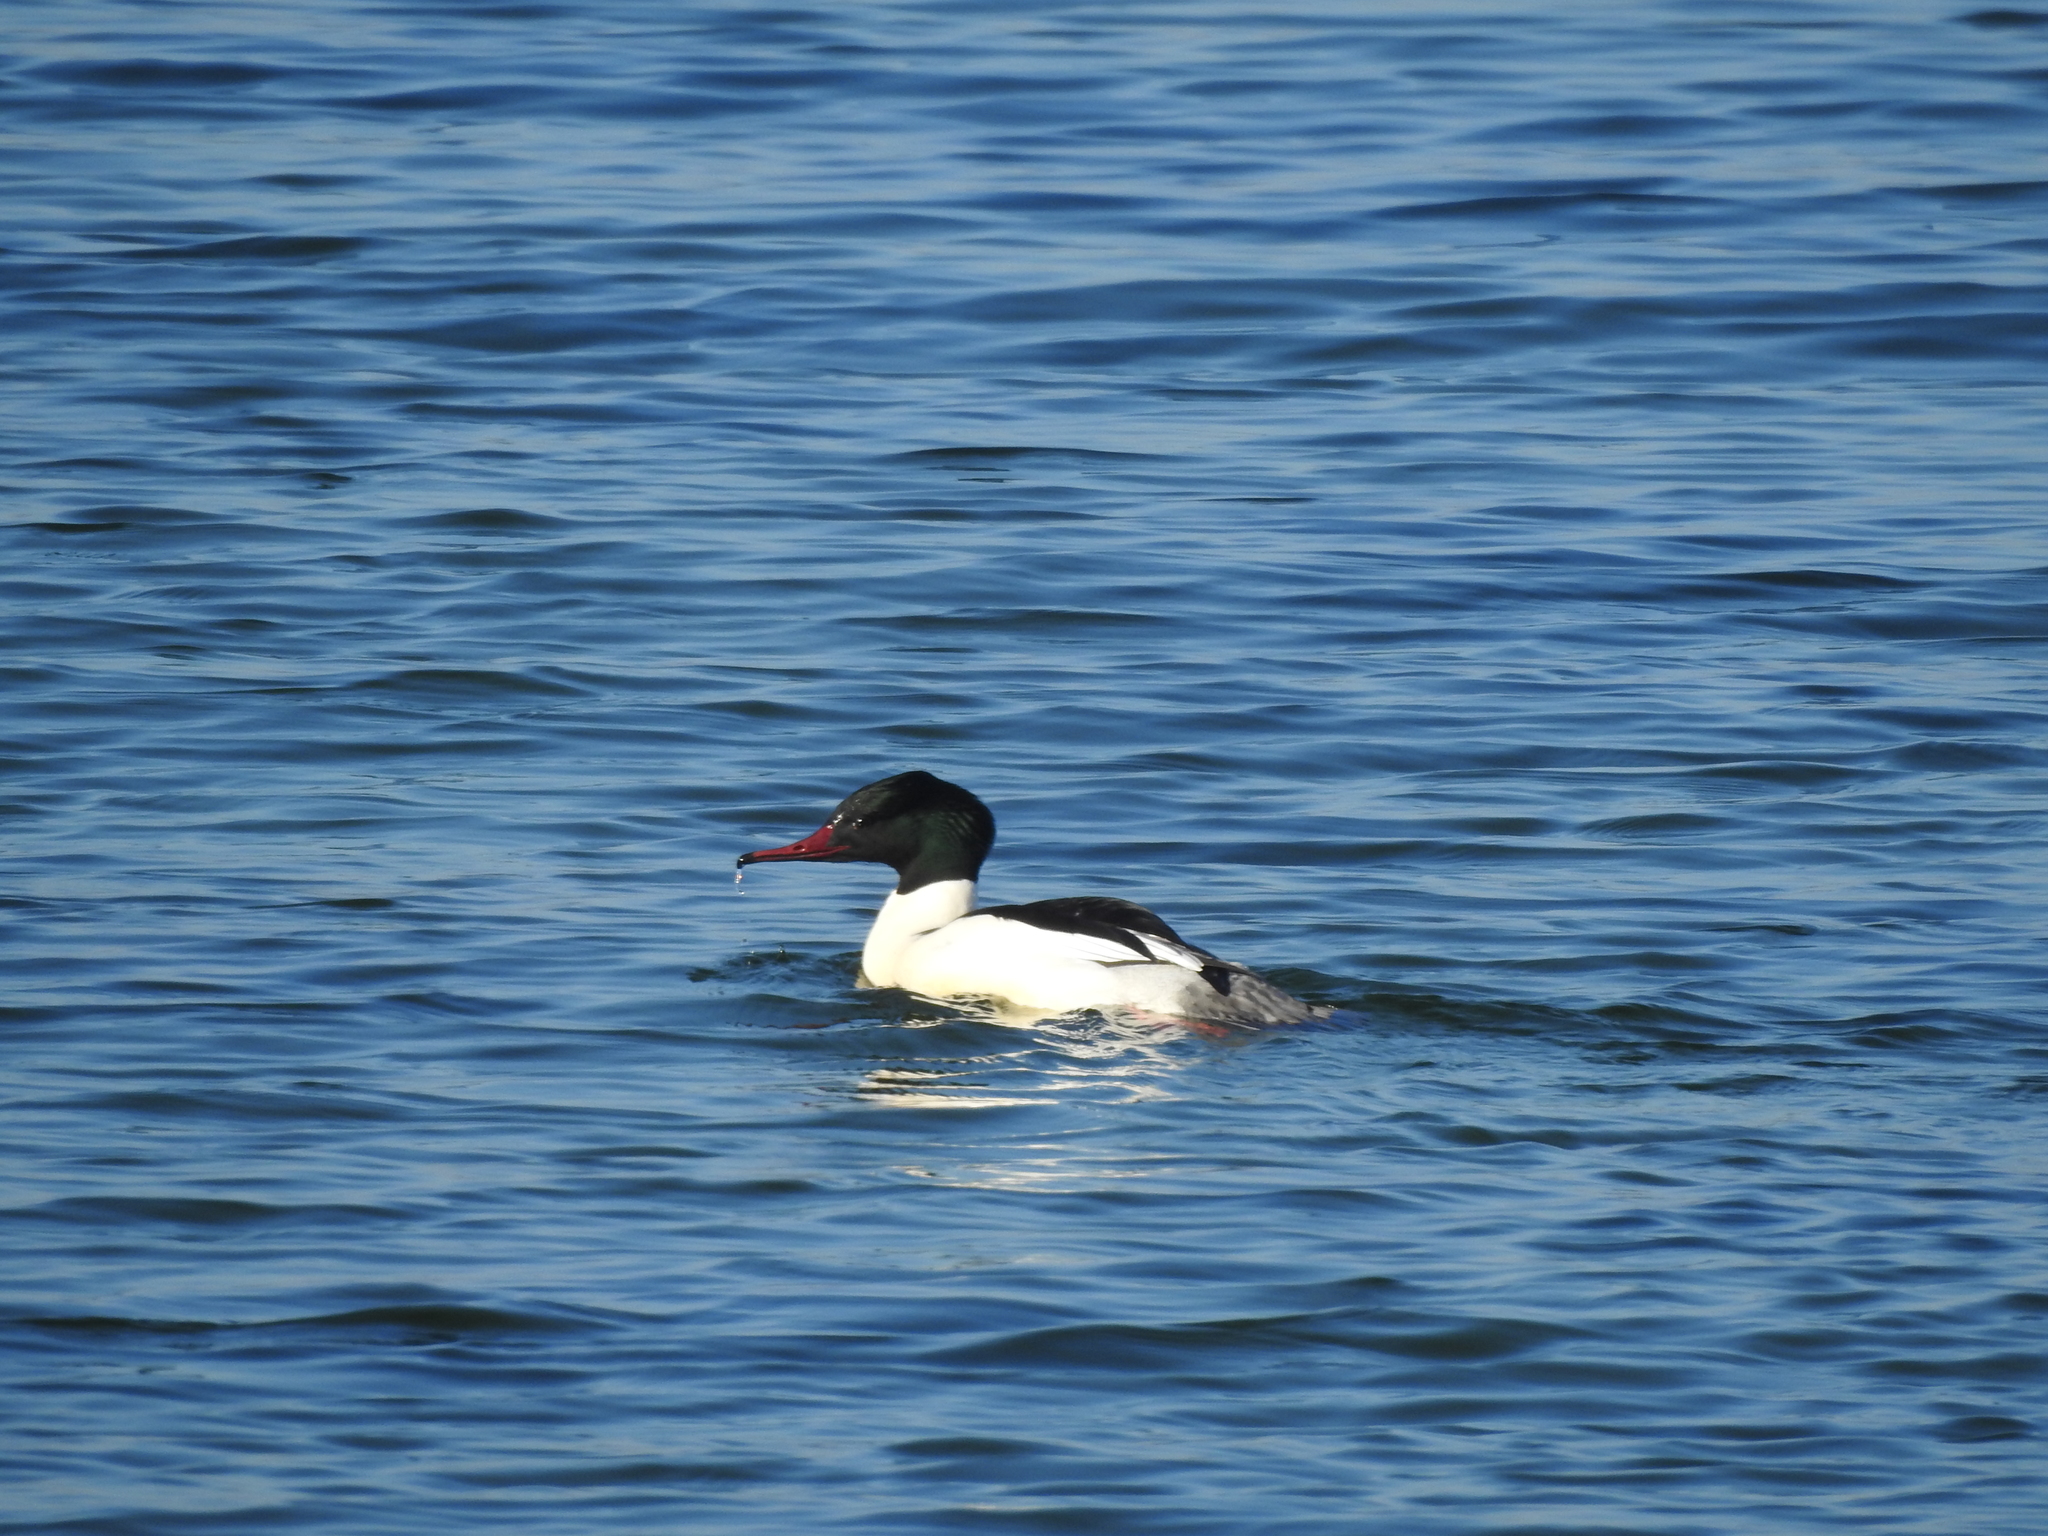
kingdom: Animalia
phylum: Chordata
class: Aves
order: Anseriformes
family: Anatidae
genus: Mergus
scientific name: Mergus merganser
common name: Common merganser
